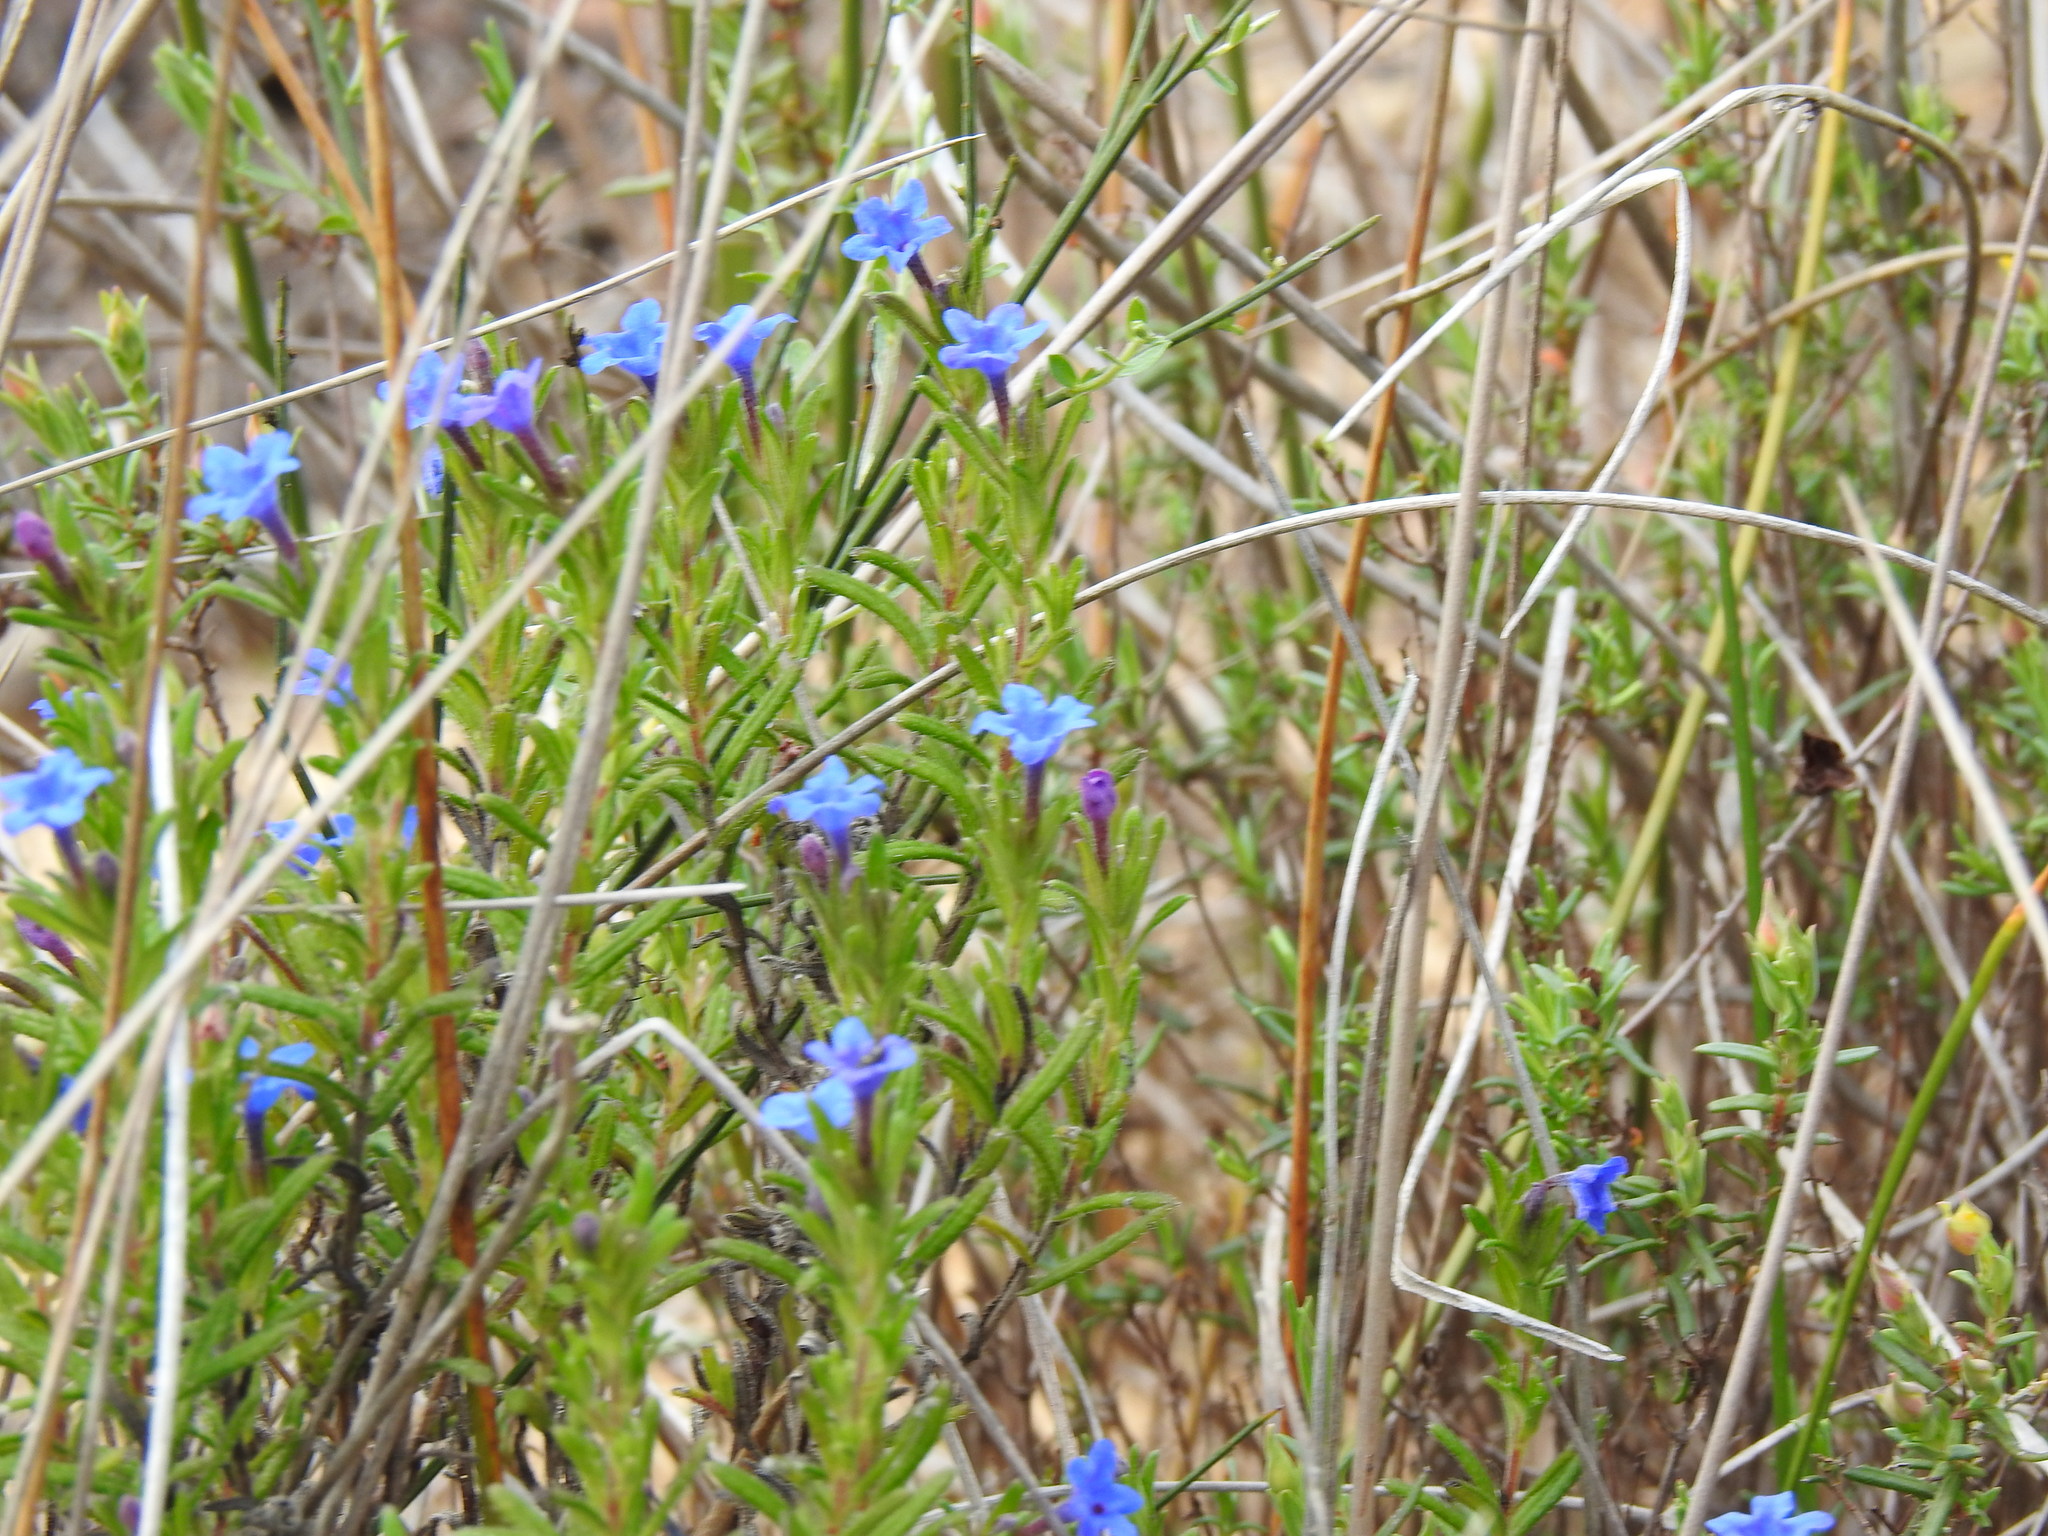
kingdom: Plantae
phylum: Tracheophyta
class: Magnoliopsida
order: Boraginales
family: Boraginaceae
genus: Glandora
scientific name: Glandora prostrata
